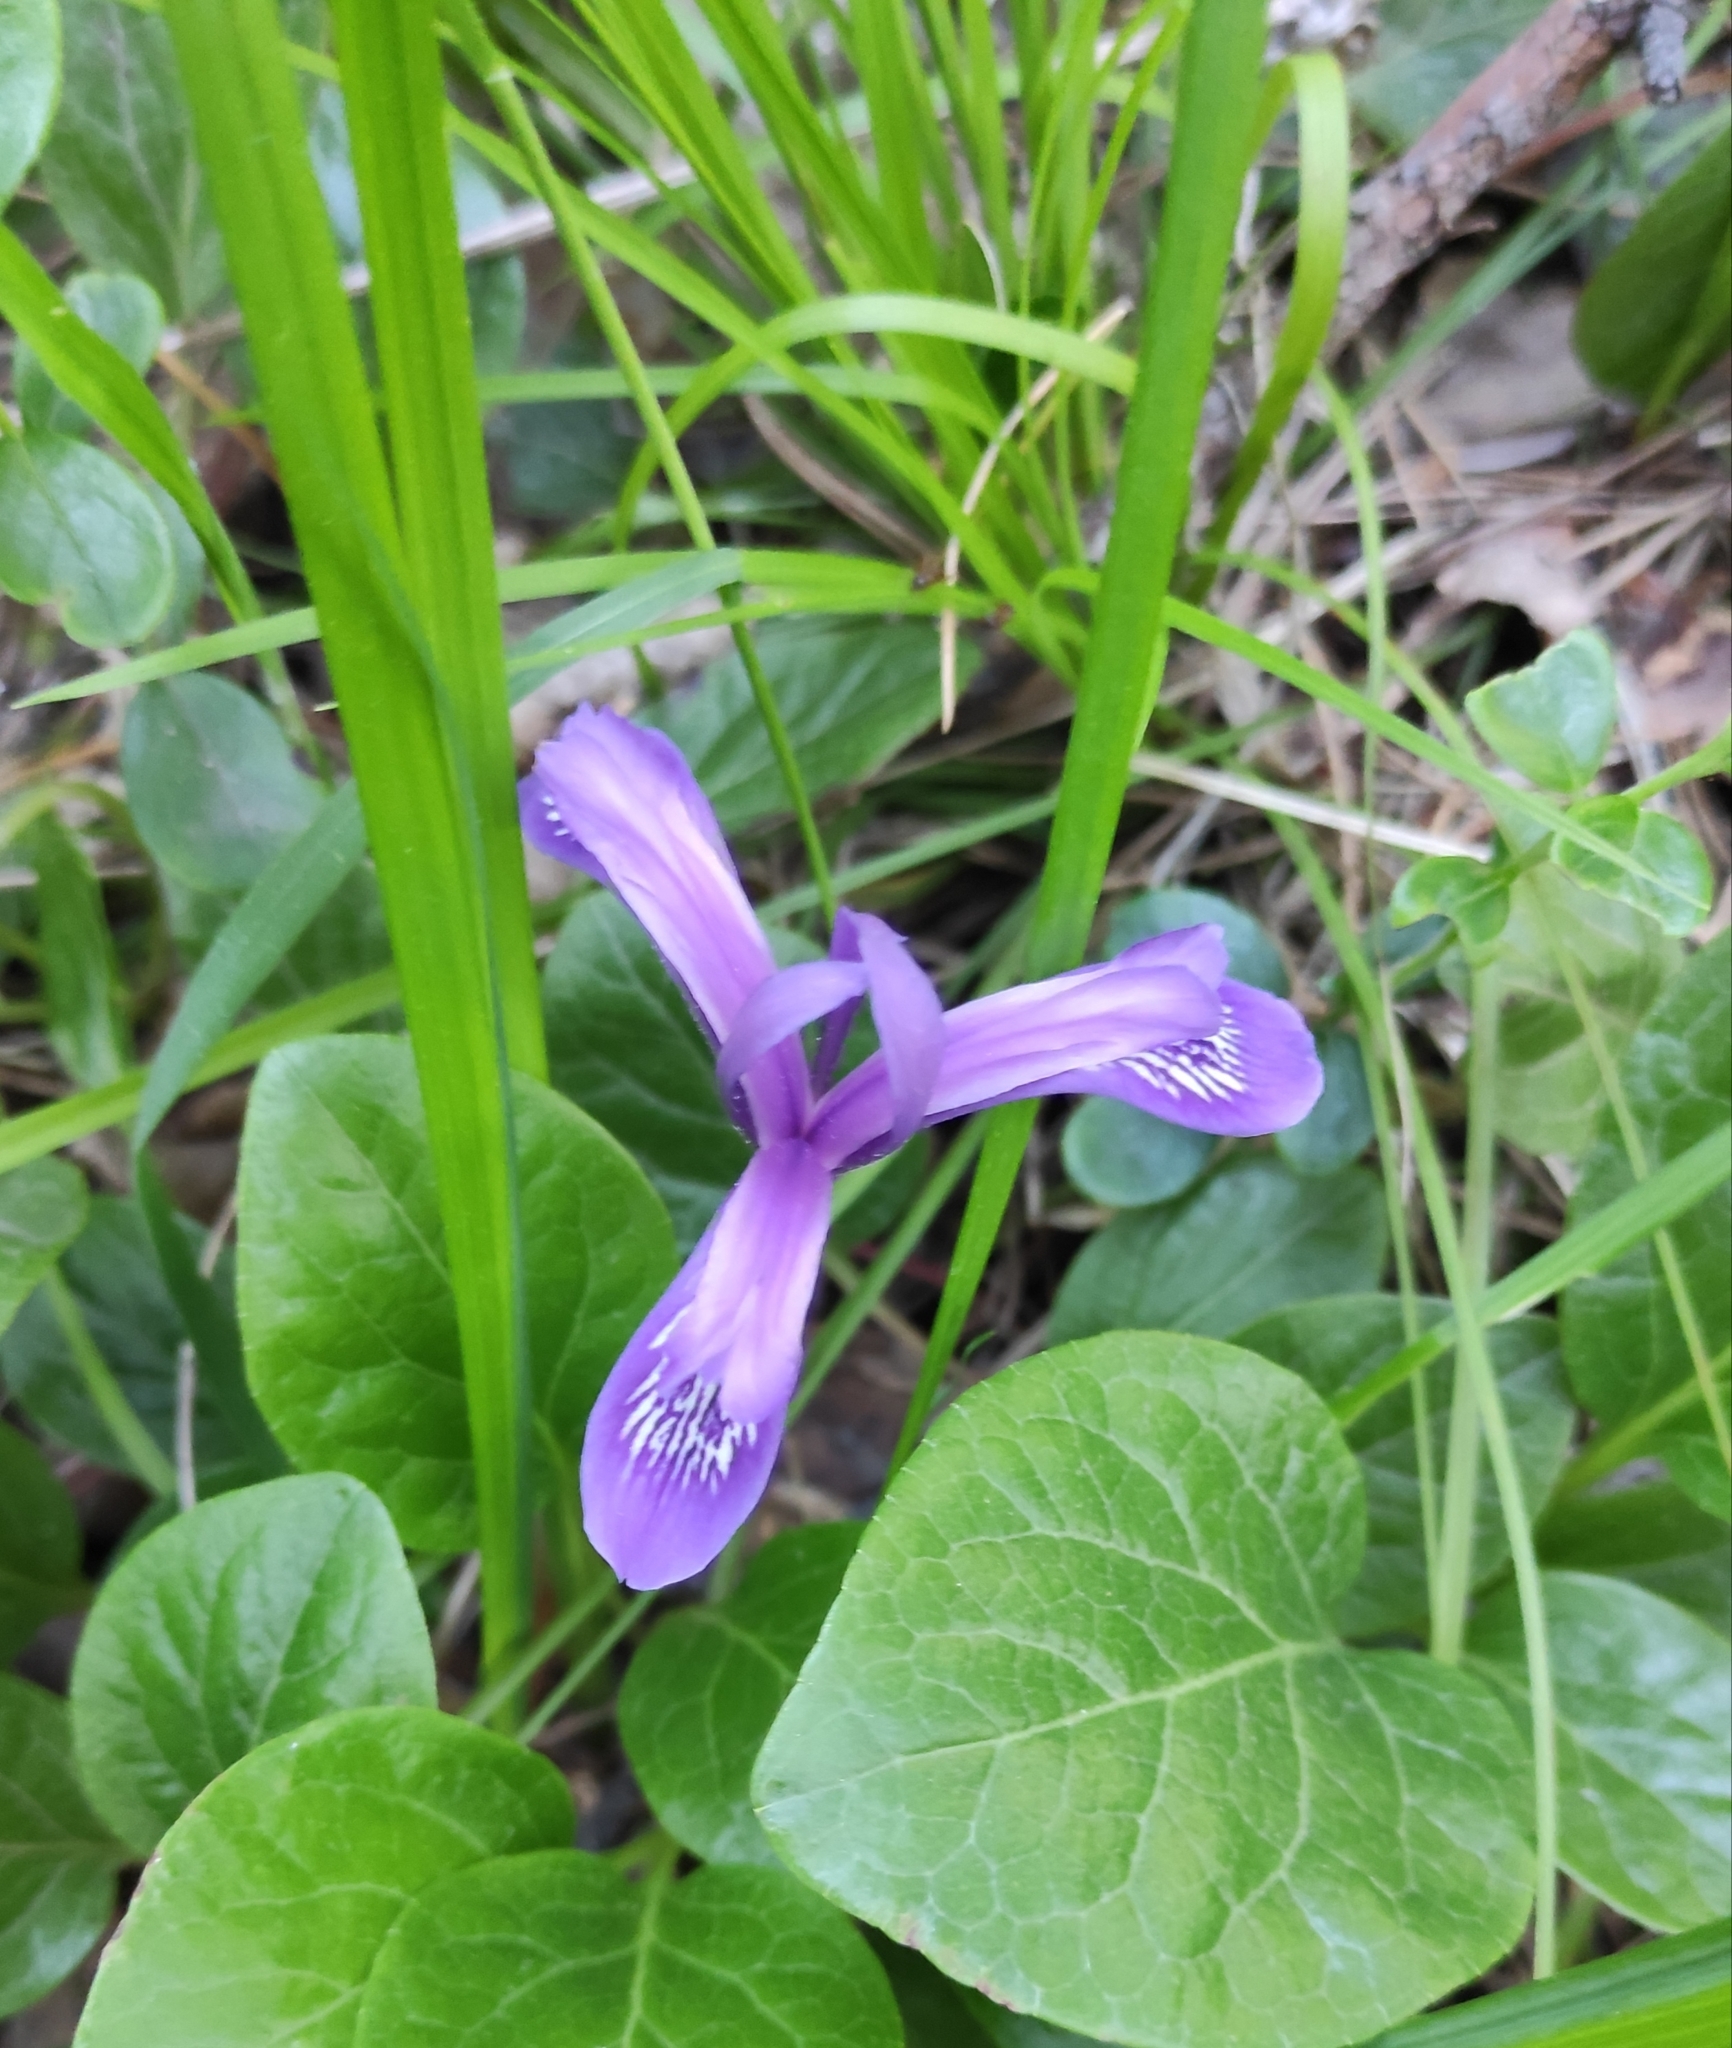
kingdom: Plantae
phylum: Tracheophyta
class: Liliopsida
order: Asparagales
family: Iridaceae
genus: Iris
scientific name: Iris ruthenica
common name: Purple-bract iris
